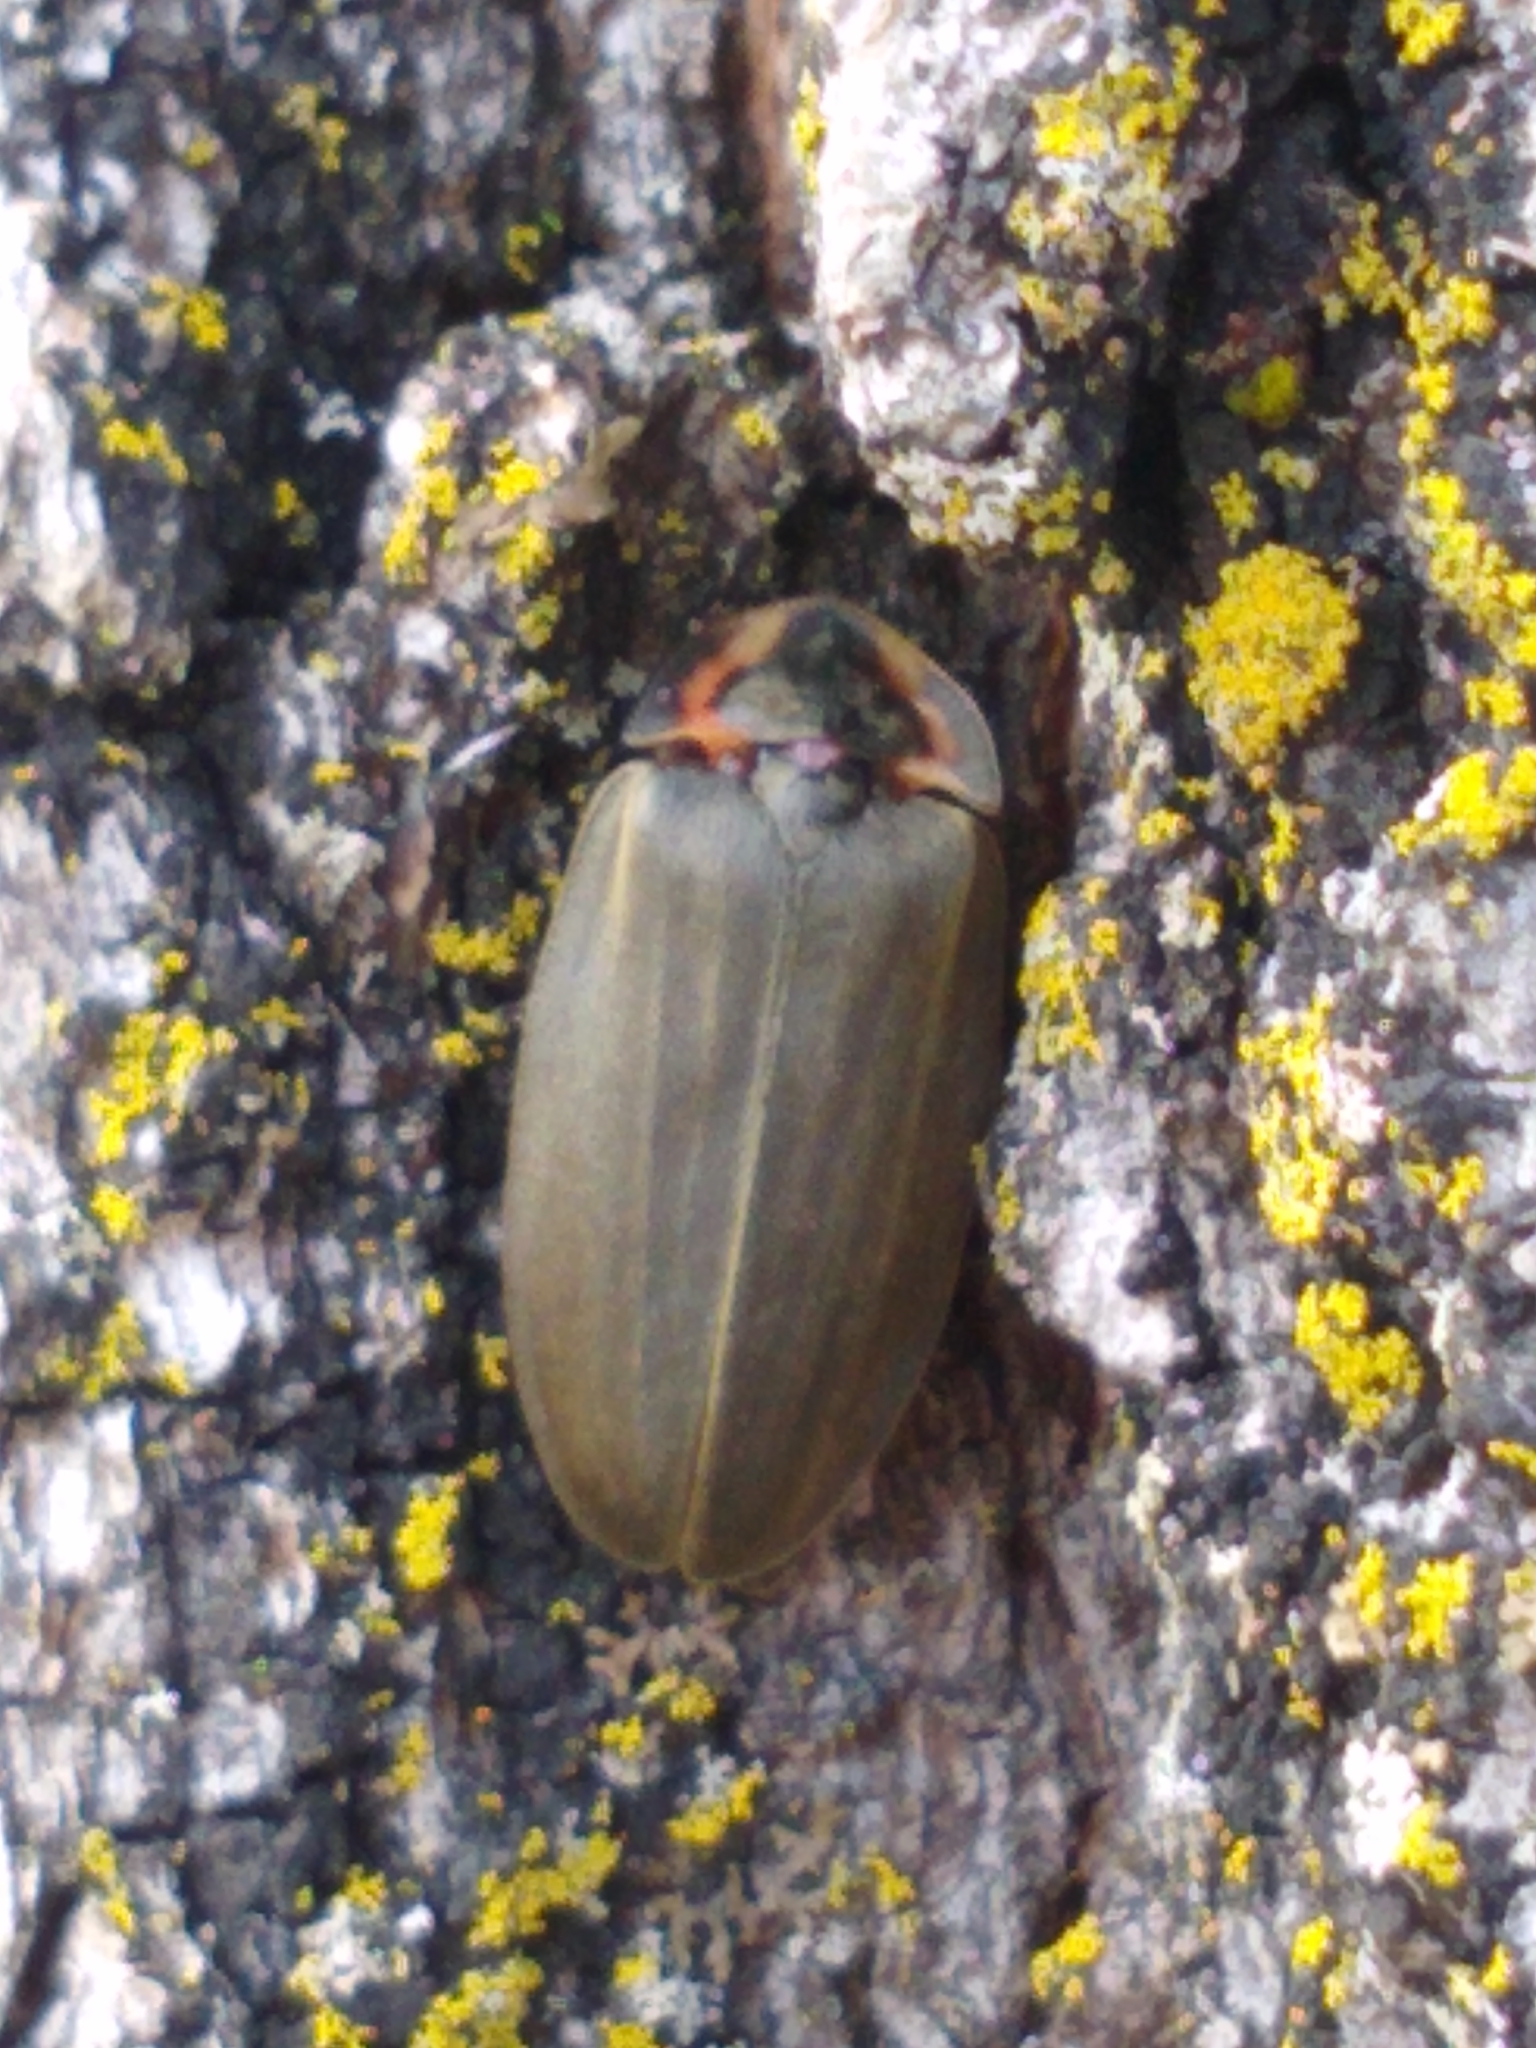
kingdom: Animalia
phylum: Arthropoda
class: Insecta
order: Coleoptera
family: Lampyridae
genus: Photinus
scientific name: Photinus corrusca
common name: Winter firefly
